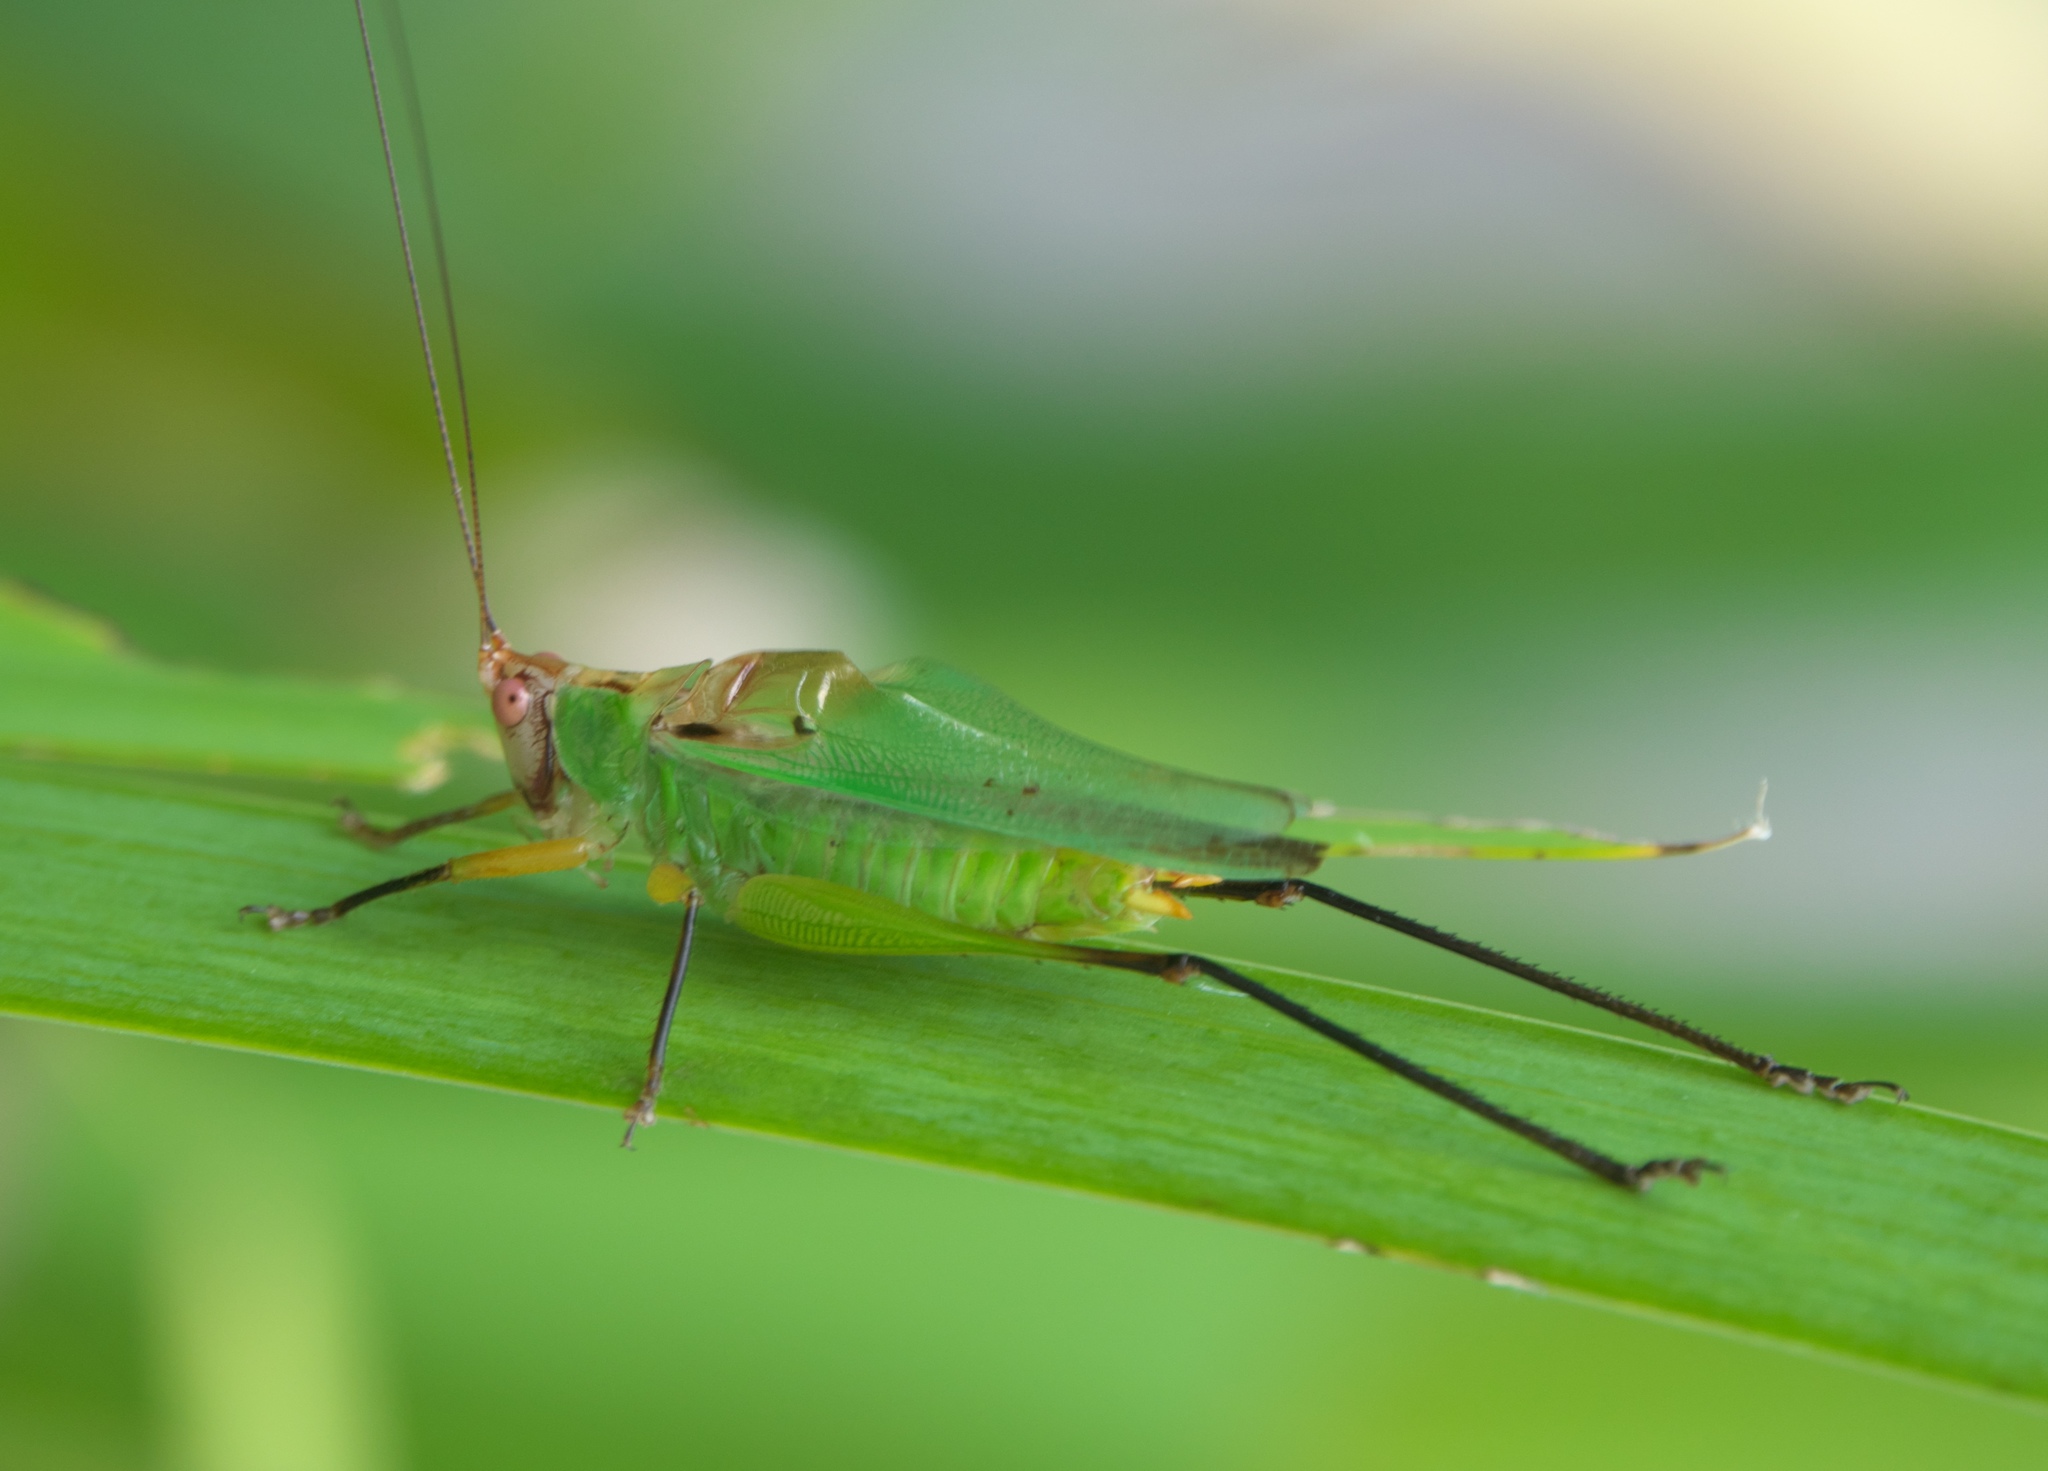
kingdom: Animalia
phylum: Arthropoda
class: Insecta
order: Orthoptera
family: Tettigoniidae
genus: Orchelimum
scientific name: Orchelimum nigripes
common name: Black-legged meadow katydid
